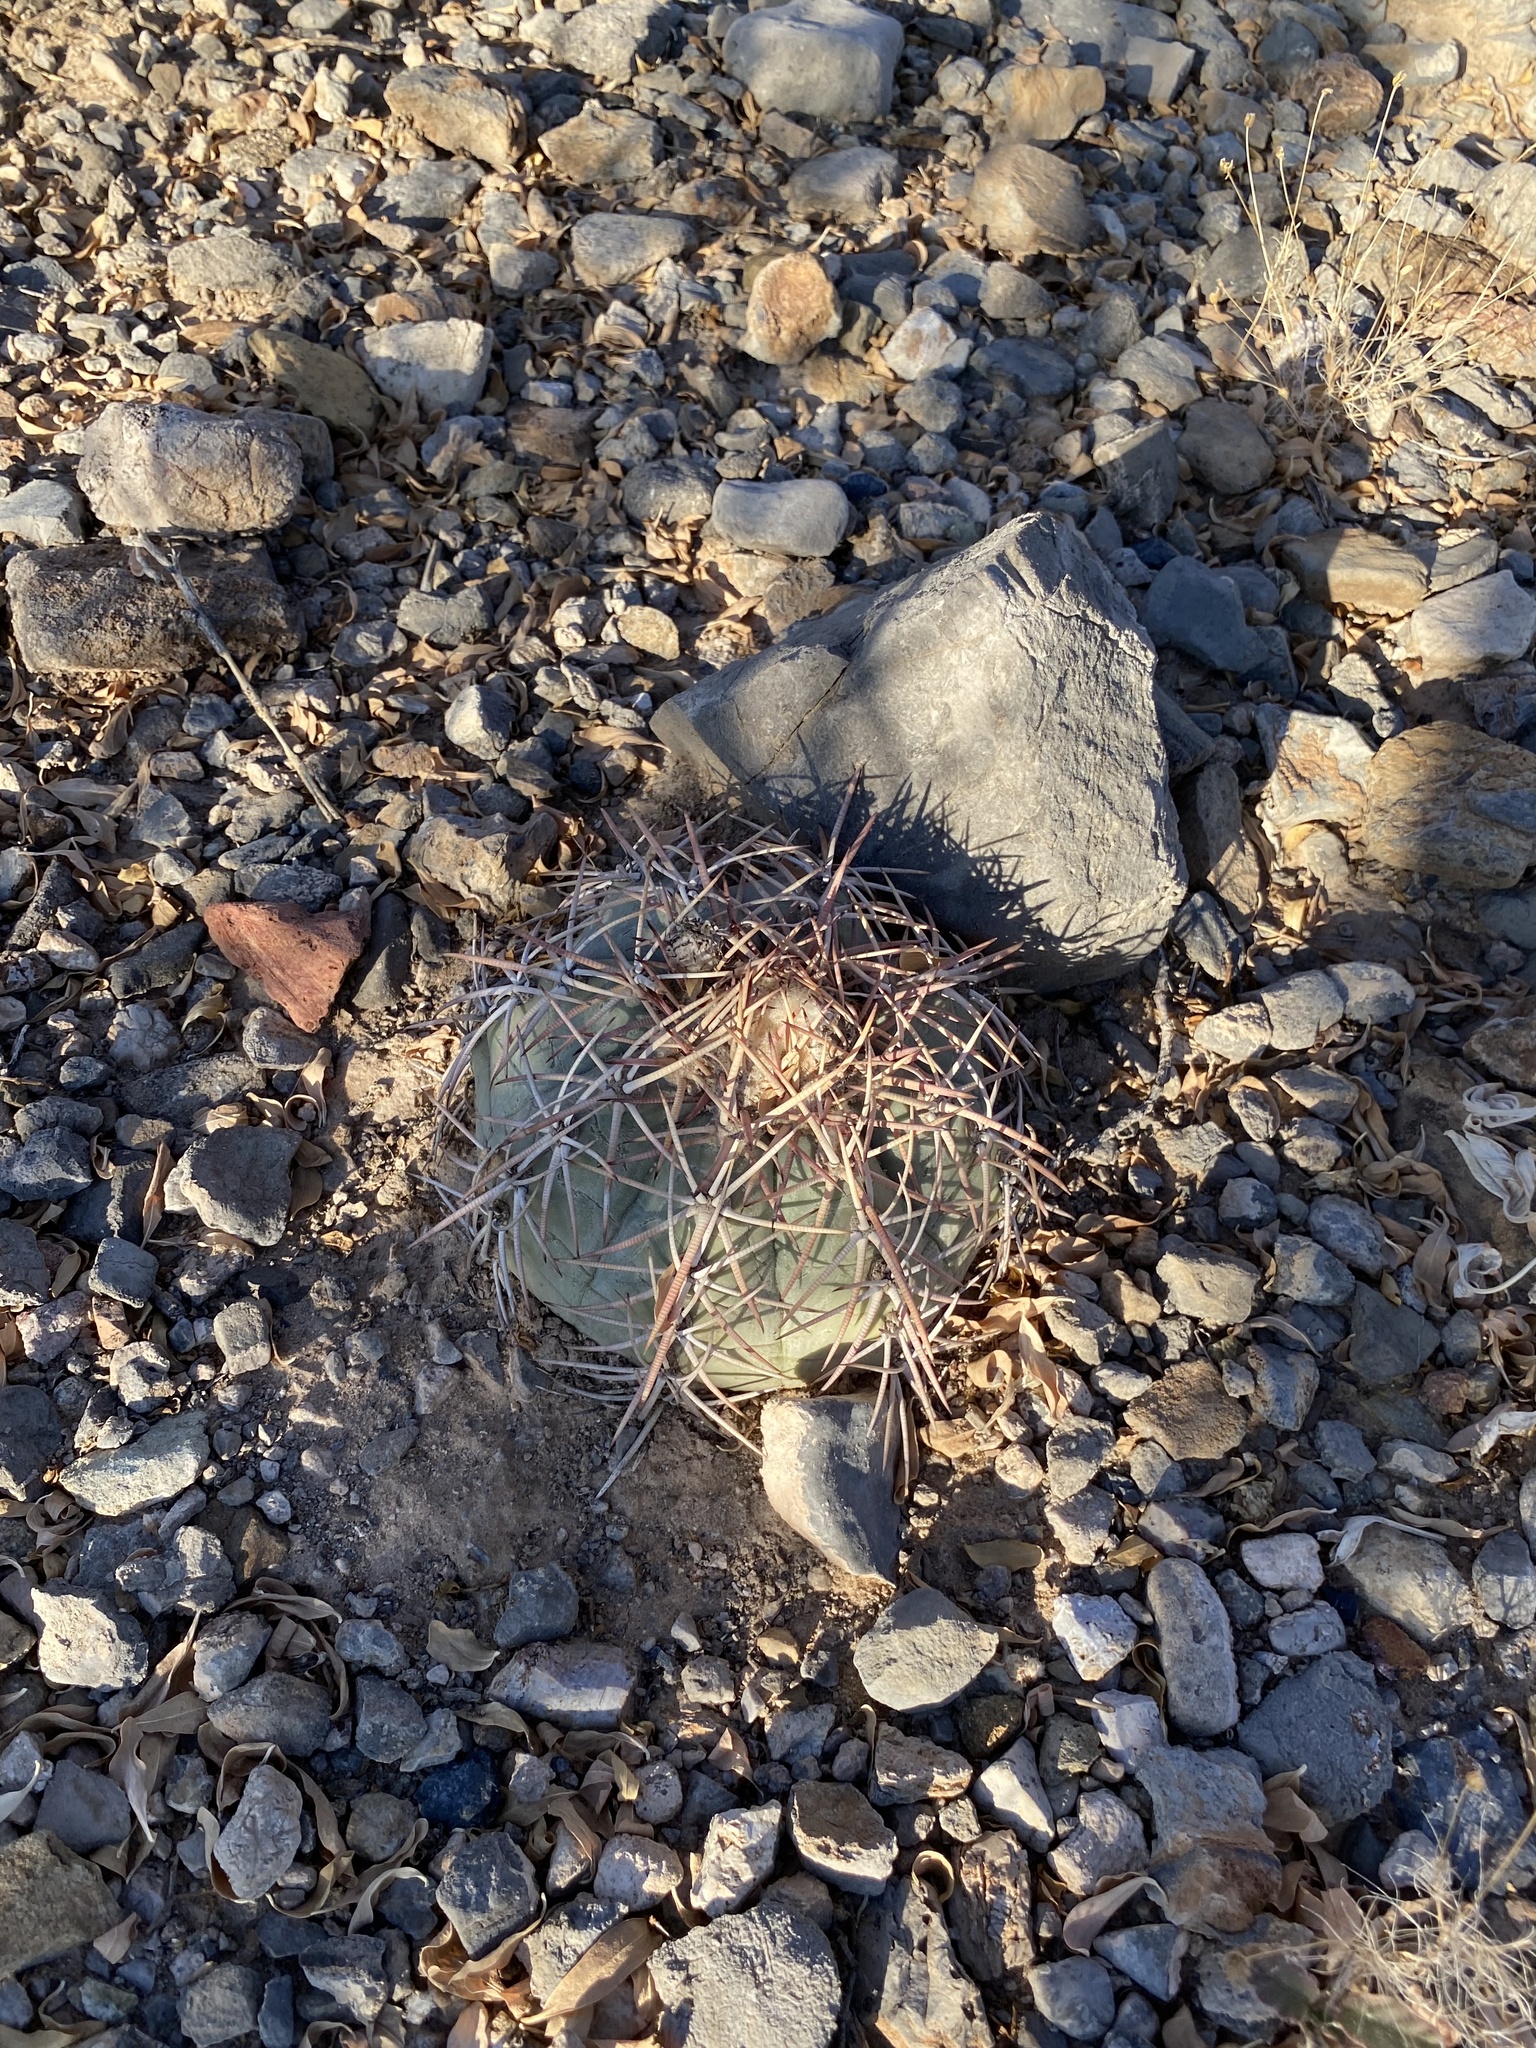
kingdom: Plantae
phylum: Tracheophyta
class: Magnoliopsida
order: Caryophyllales
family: Cactaceae
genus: Echinocactus
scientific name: Echinocactus horizonthalonius
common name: Devilshead
